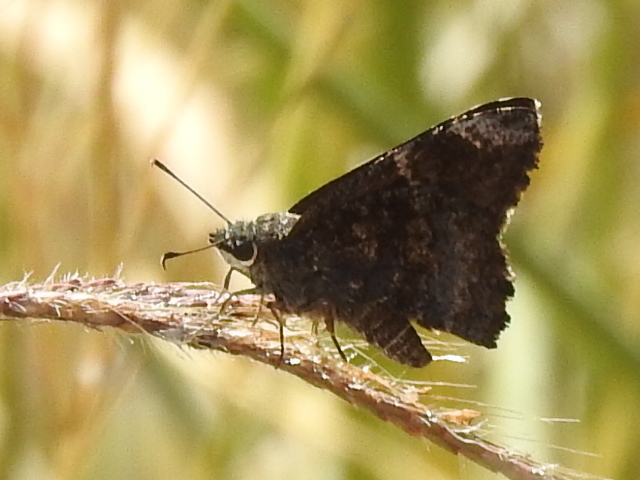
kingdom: Animalia
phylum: Arthropoda
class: Insecta
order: Lepidoptera
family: Hesperiidae
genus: Caicella
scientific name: Caicella calchas
